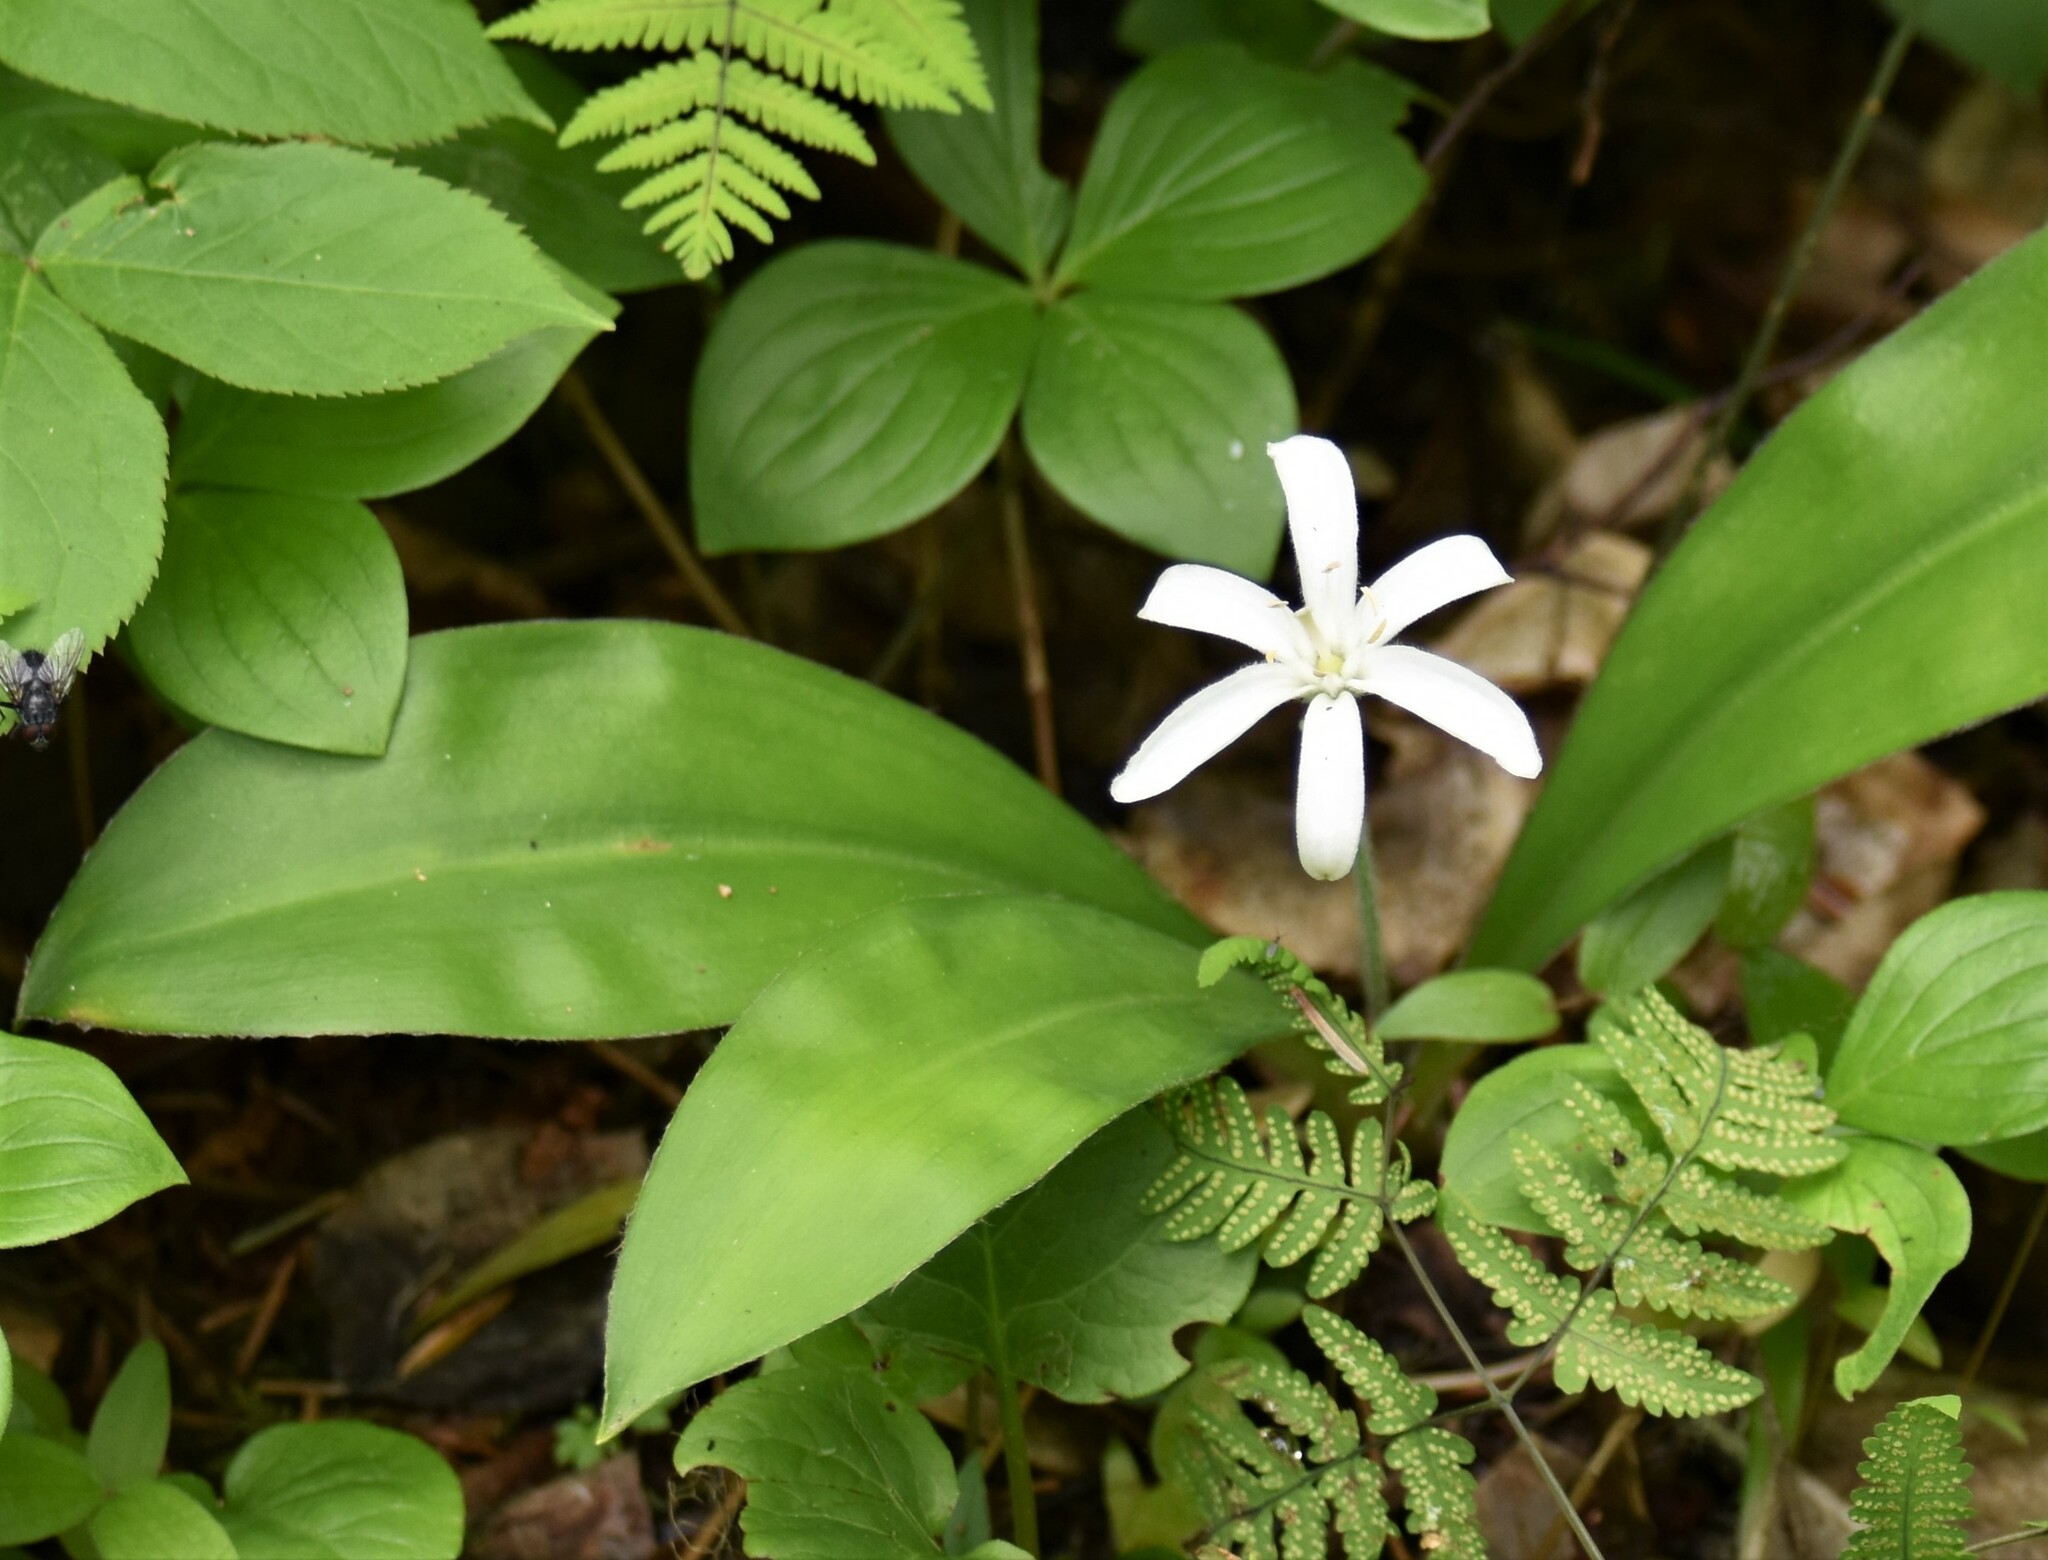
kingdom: Plantae
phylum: Tracheophyta
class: Liliopsida
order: Liliales
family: Liliaceae
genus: Clintonia
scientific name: Clintonia uniflora
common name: Queen's cup
